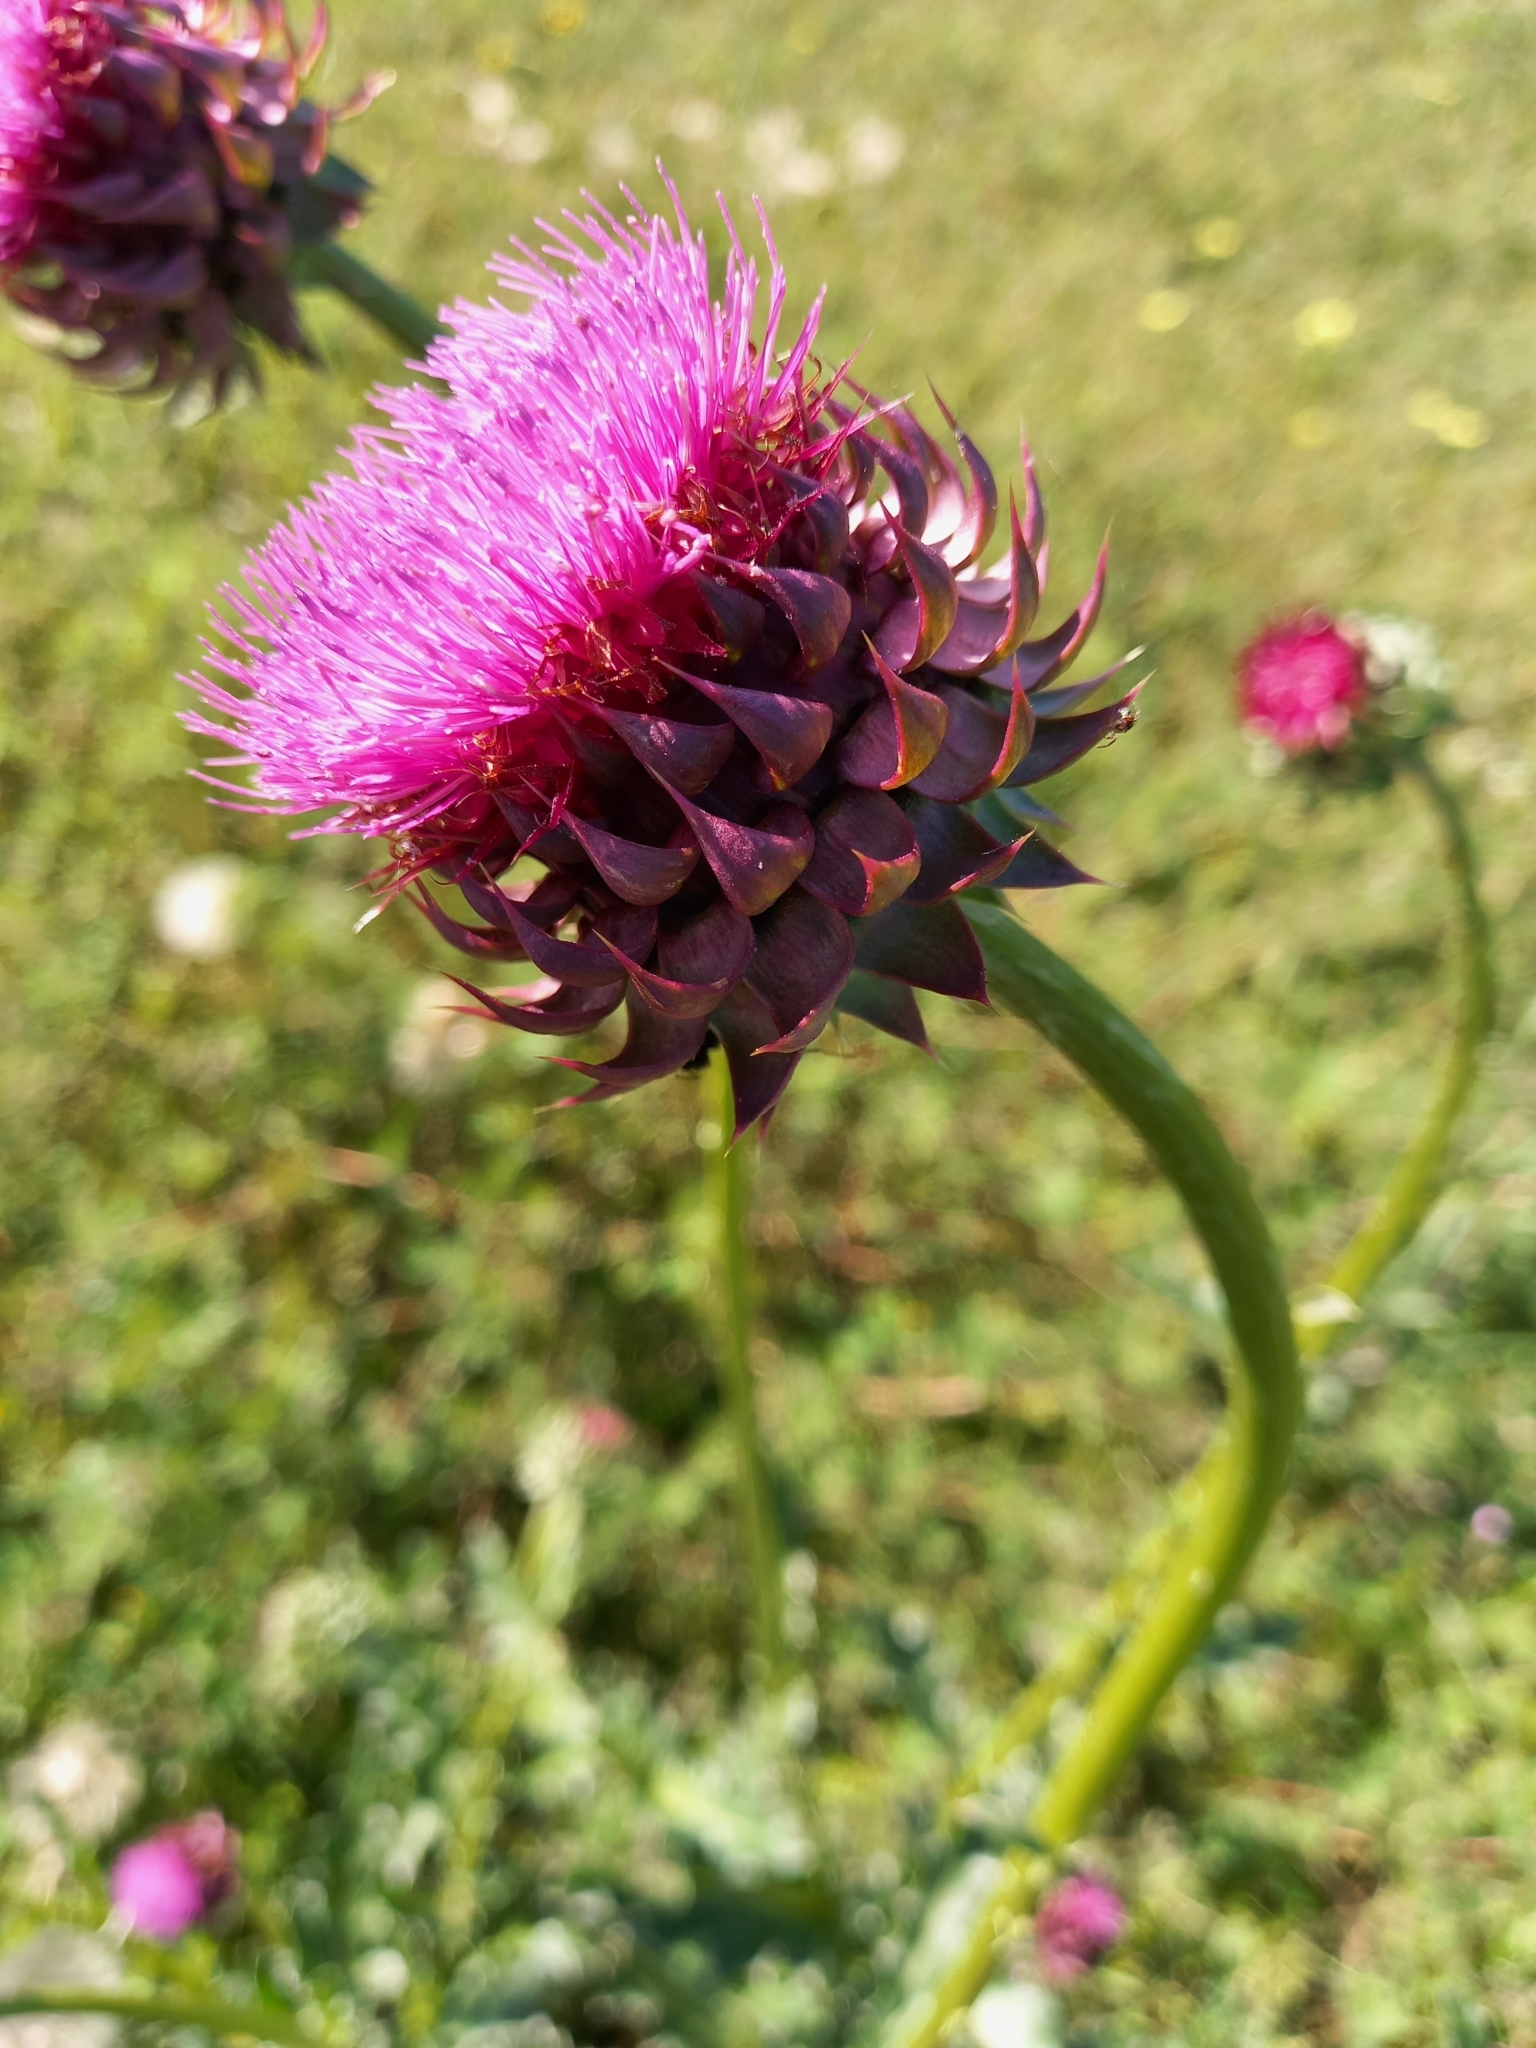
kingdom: Plantae
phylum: Tracheophyta
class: Magnoliopsida
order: Asterales
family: Asteraceae
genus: Carduus
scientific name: Carduus nutans
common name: Musk thistle
